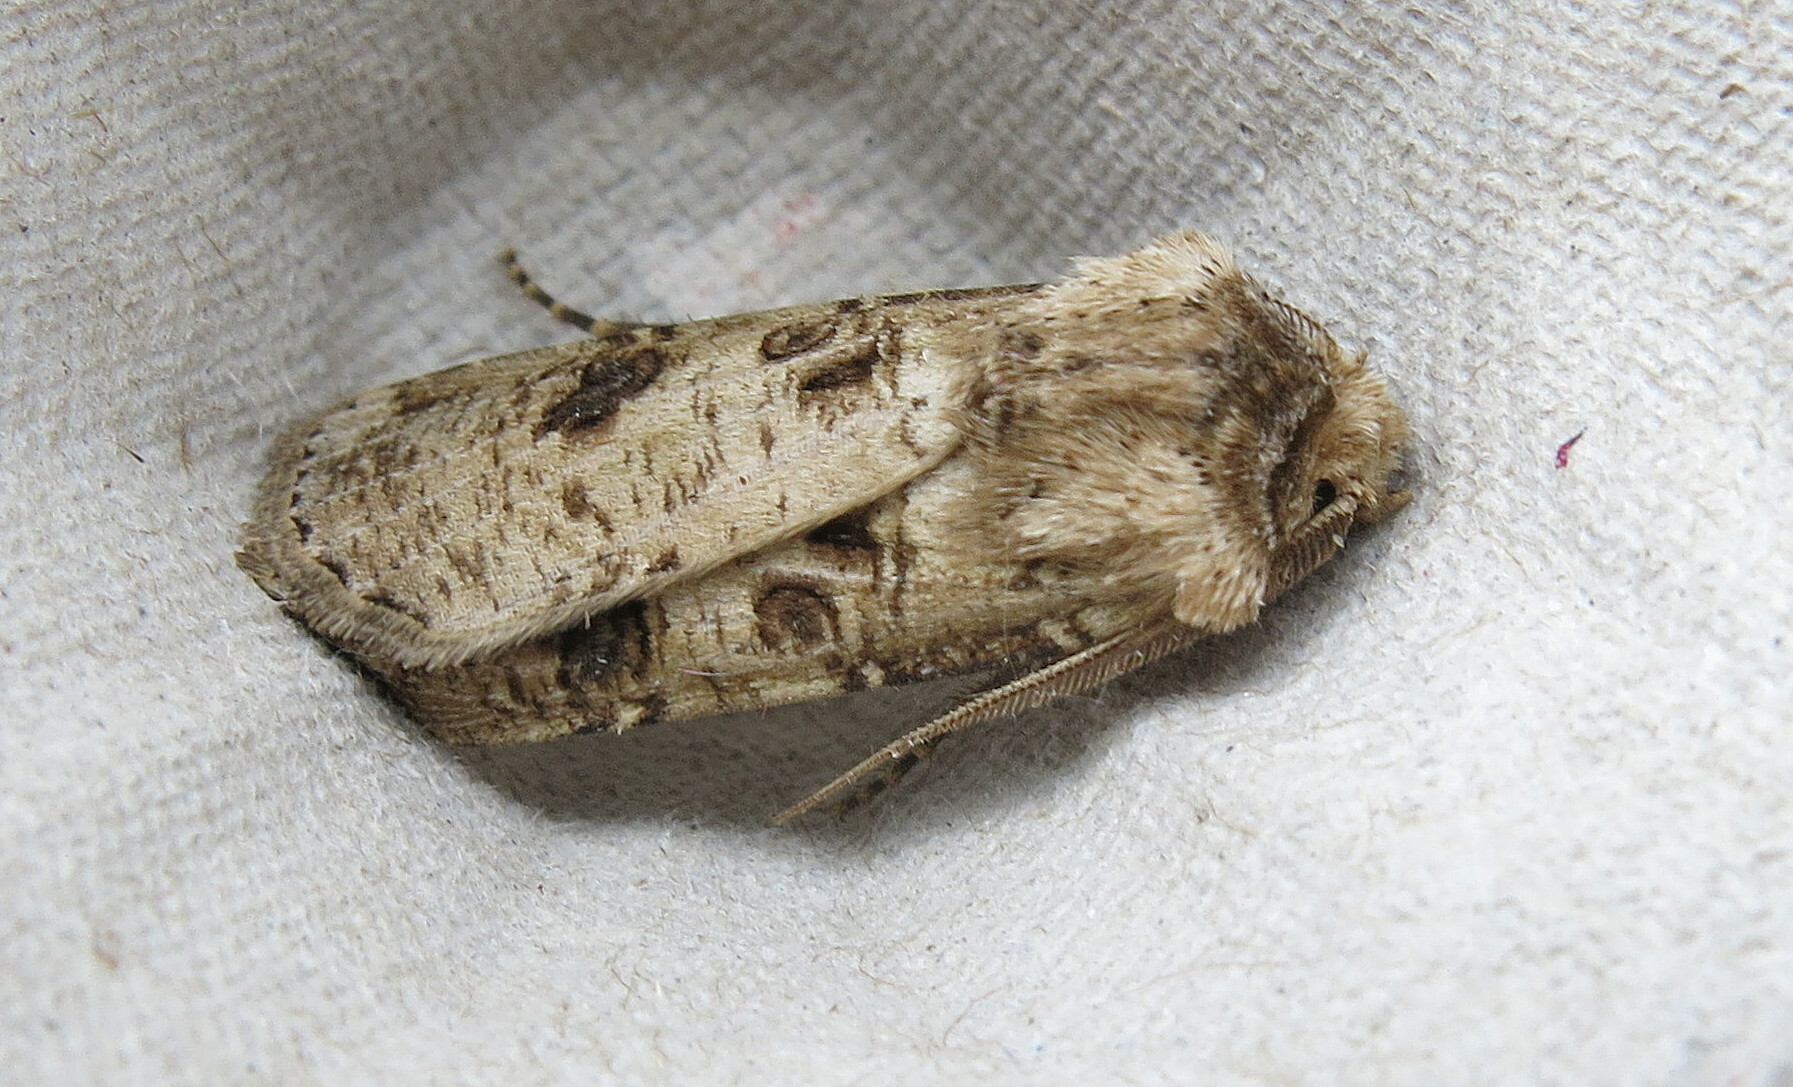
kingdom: Animalia
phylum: Arthropoda
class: Insecta
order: Lepidoptera
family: Noctuidae
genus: Agrotis
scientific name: Agrotis clavis
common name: Heart and club
